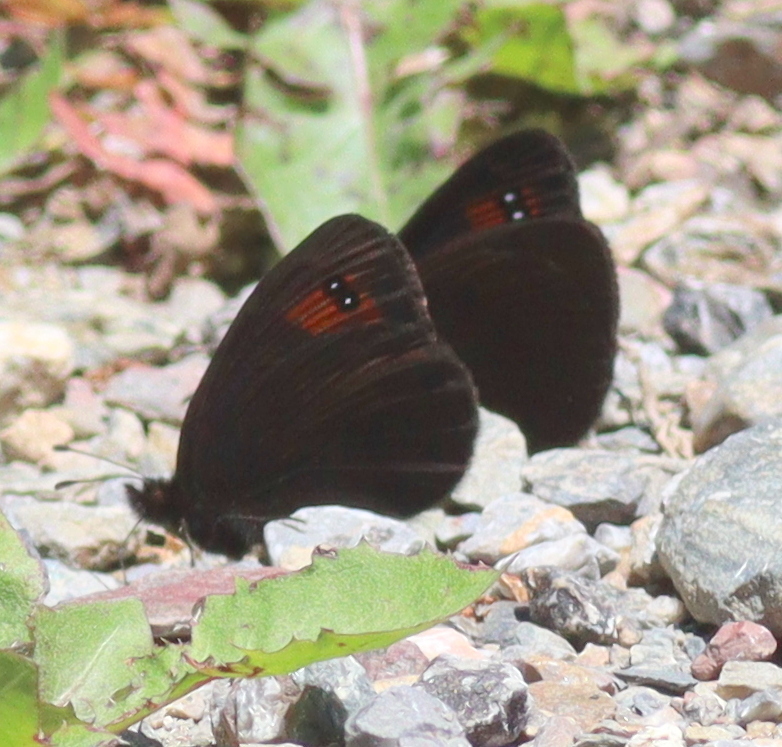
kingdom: Animalia
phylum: Arthropoda
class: Insecta
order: Lepidoptera
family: Nymphalidae
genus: Erebia
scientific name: Erebia meolans
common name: Piedmont ringlet
